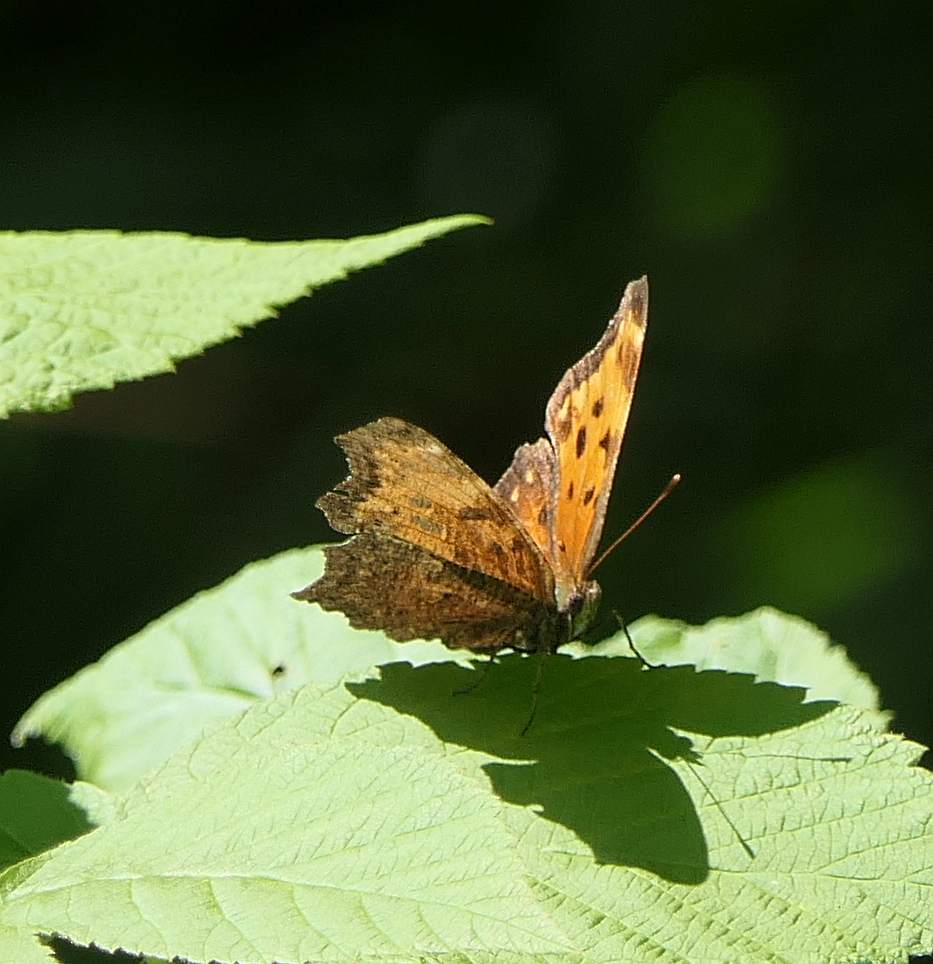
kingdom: Animalia
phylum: Arthropoda
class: Insecta
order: Lepidoptera
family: Nymphalidae
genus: Polygonia
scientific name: Polygonia progne
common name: Gray comma
